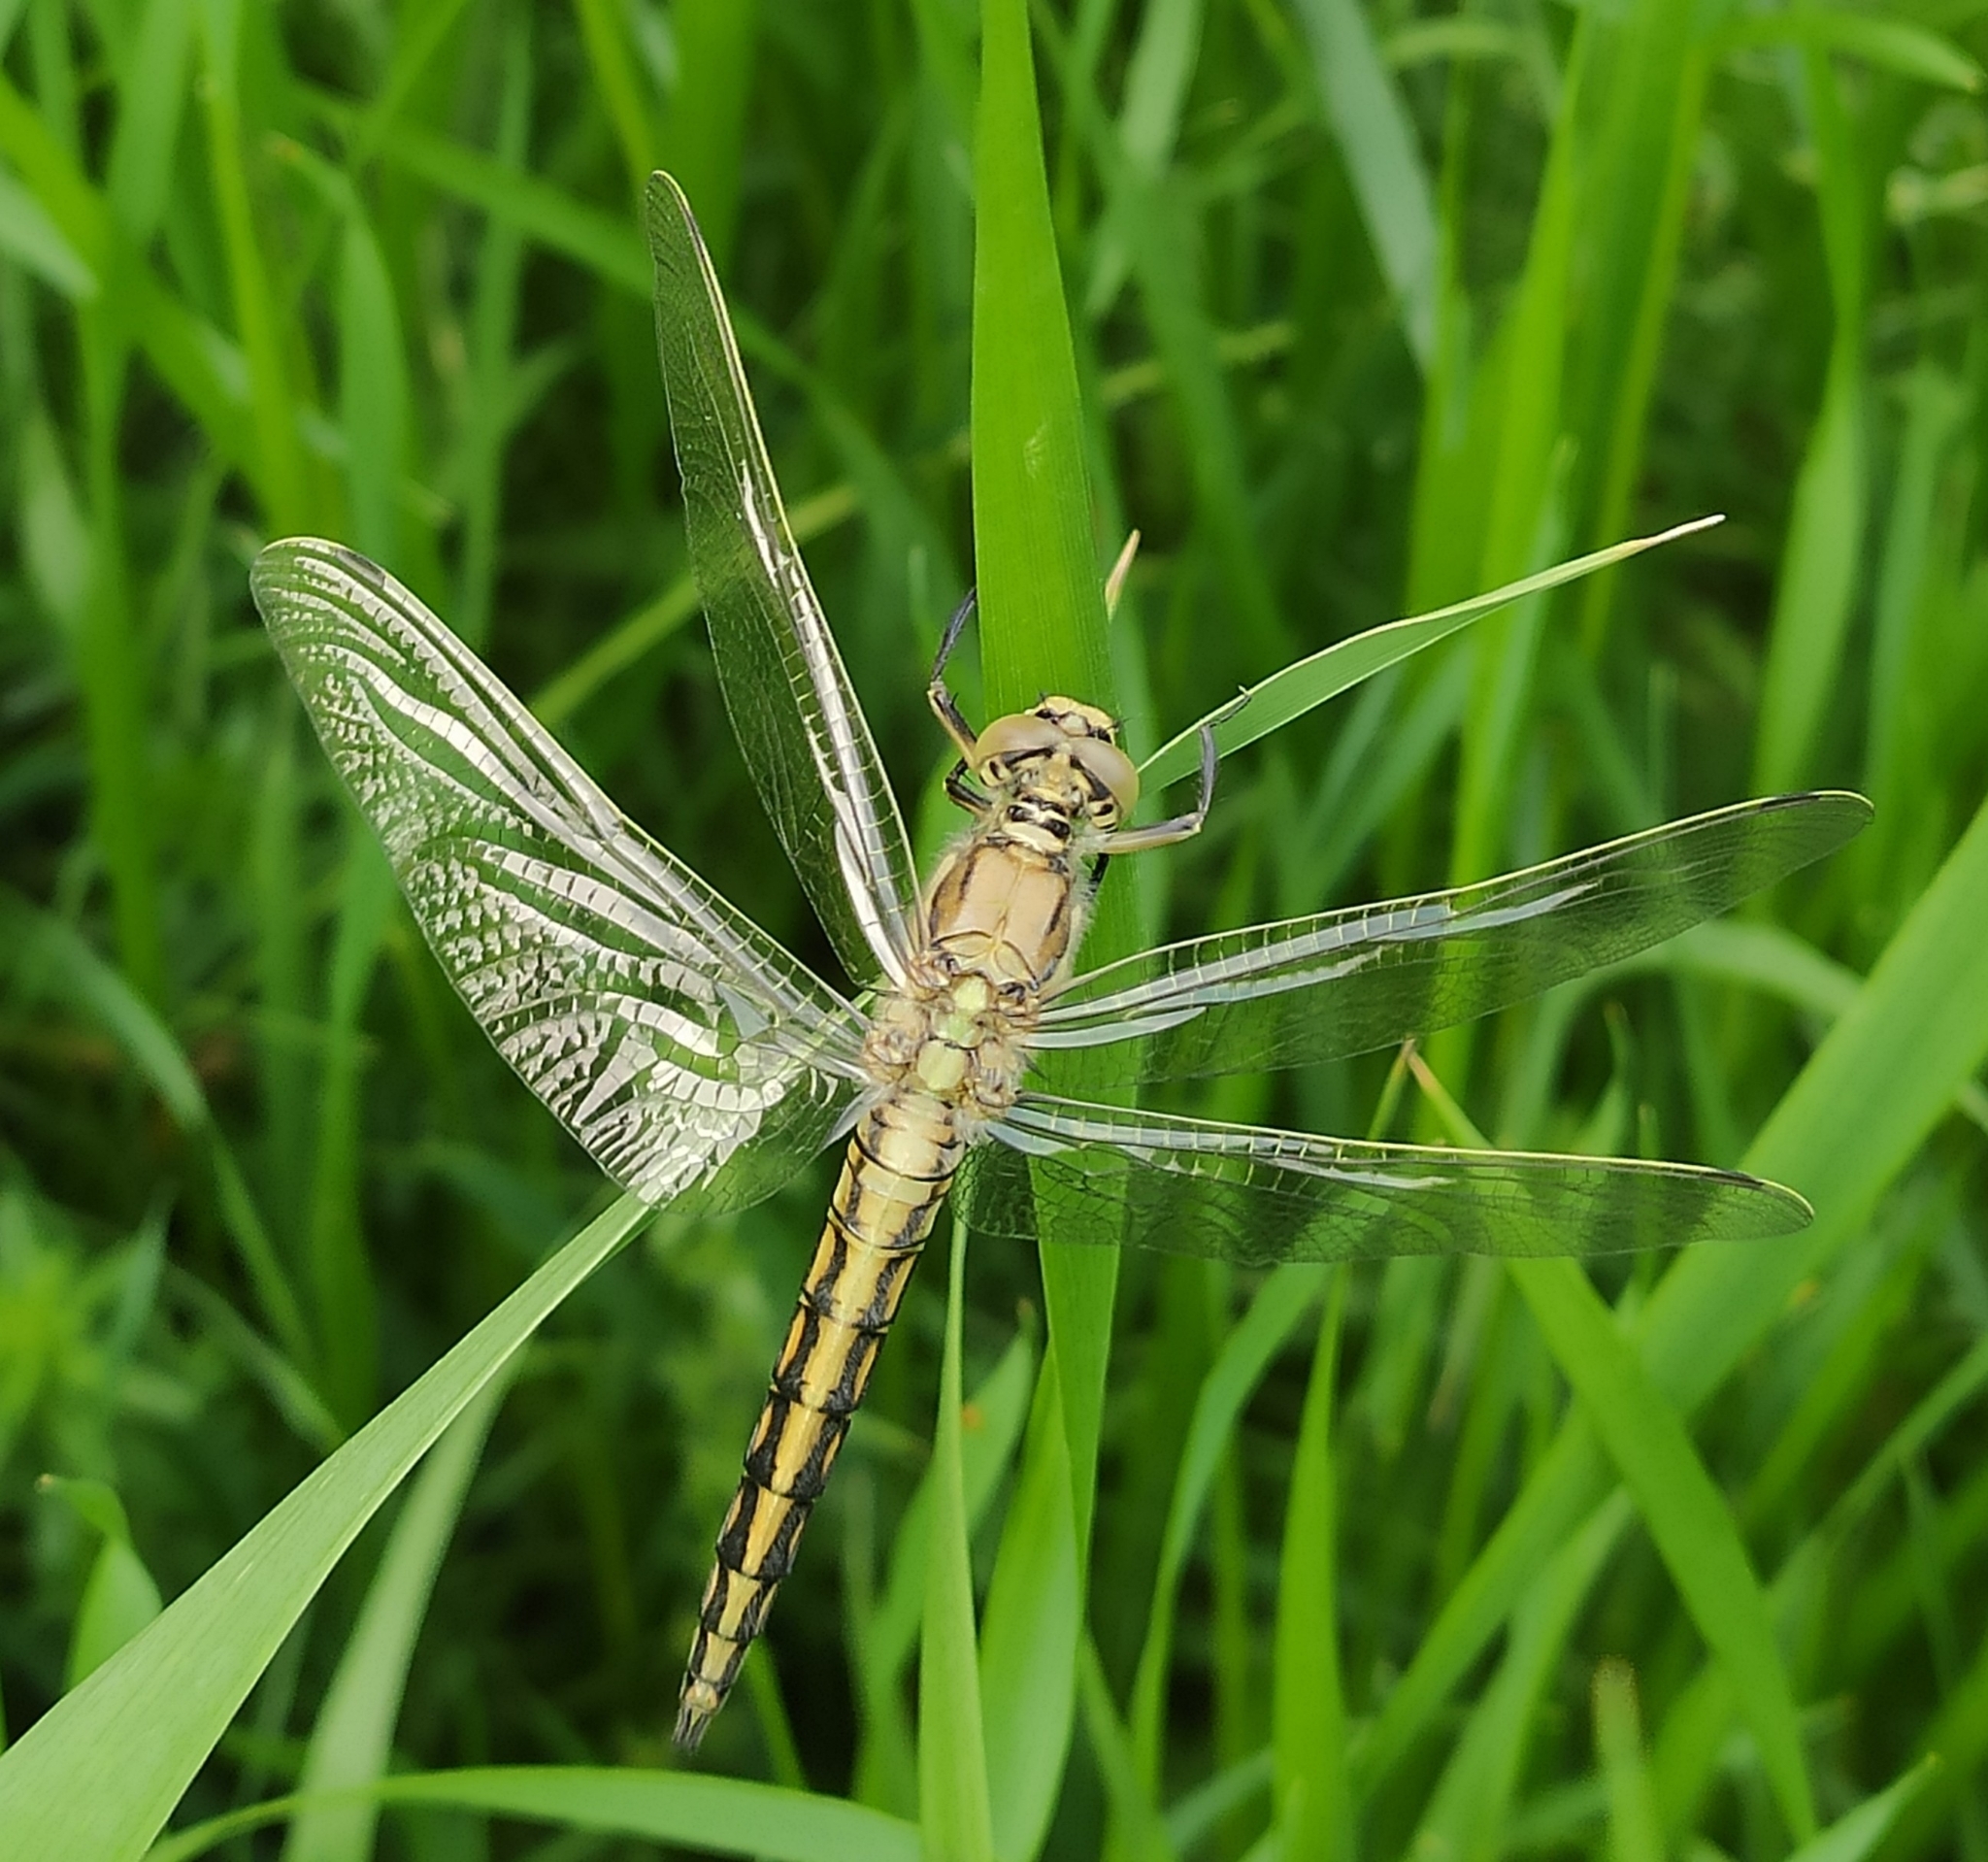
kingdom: Animalia
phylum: Arthropoda
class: Insecta
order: Odonata
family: Libellulidae
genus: Orthetrum
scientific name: Orthetrum cancellatum
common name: Black-tailed skimmer
